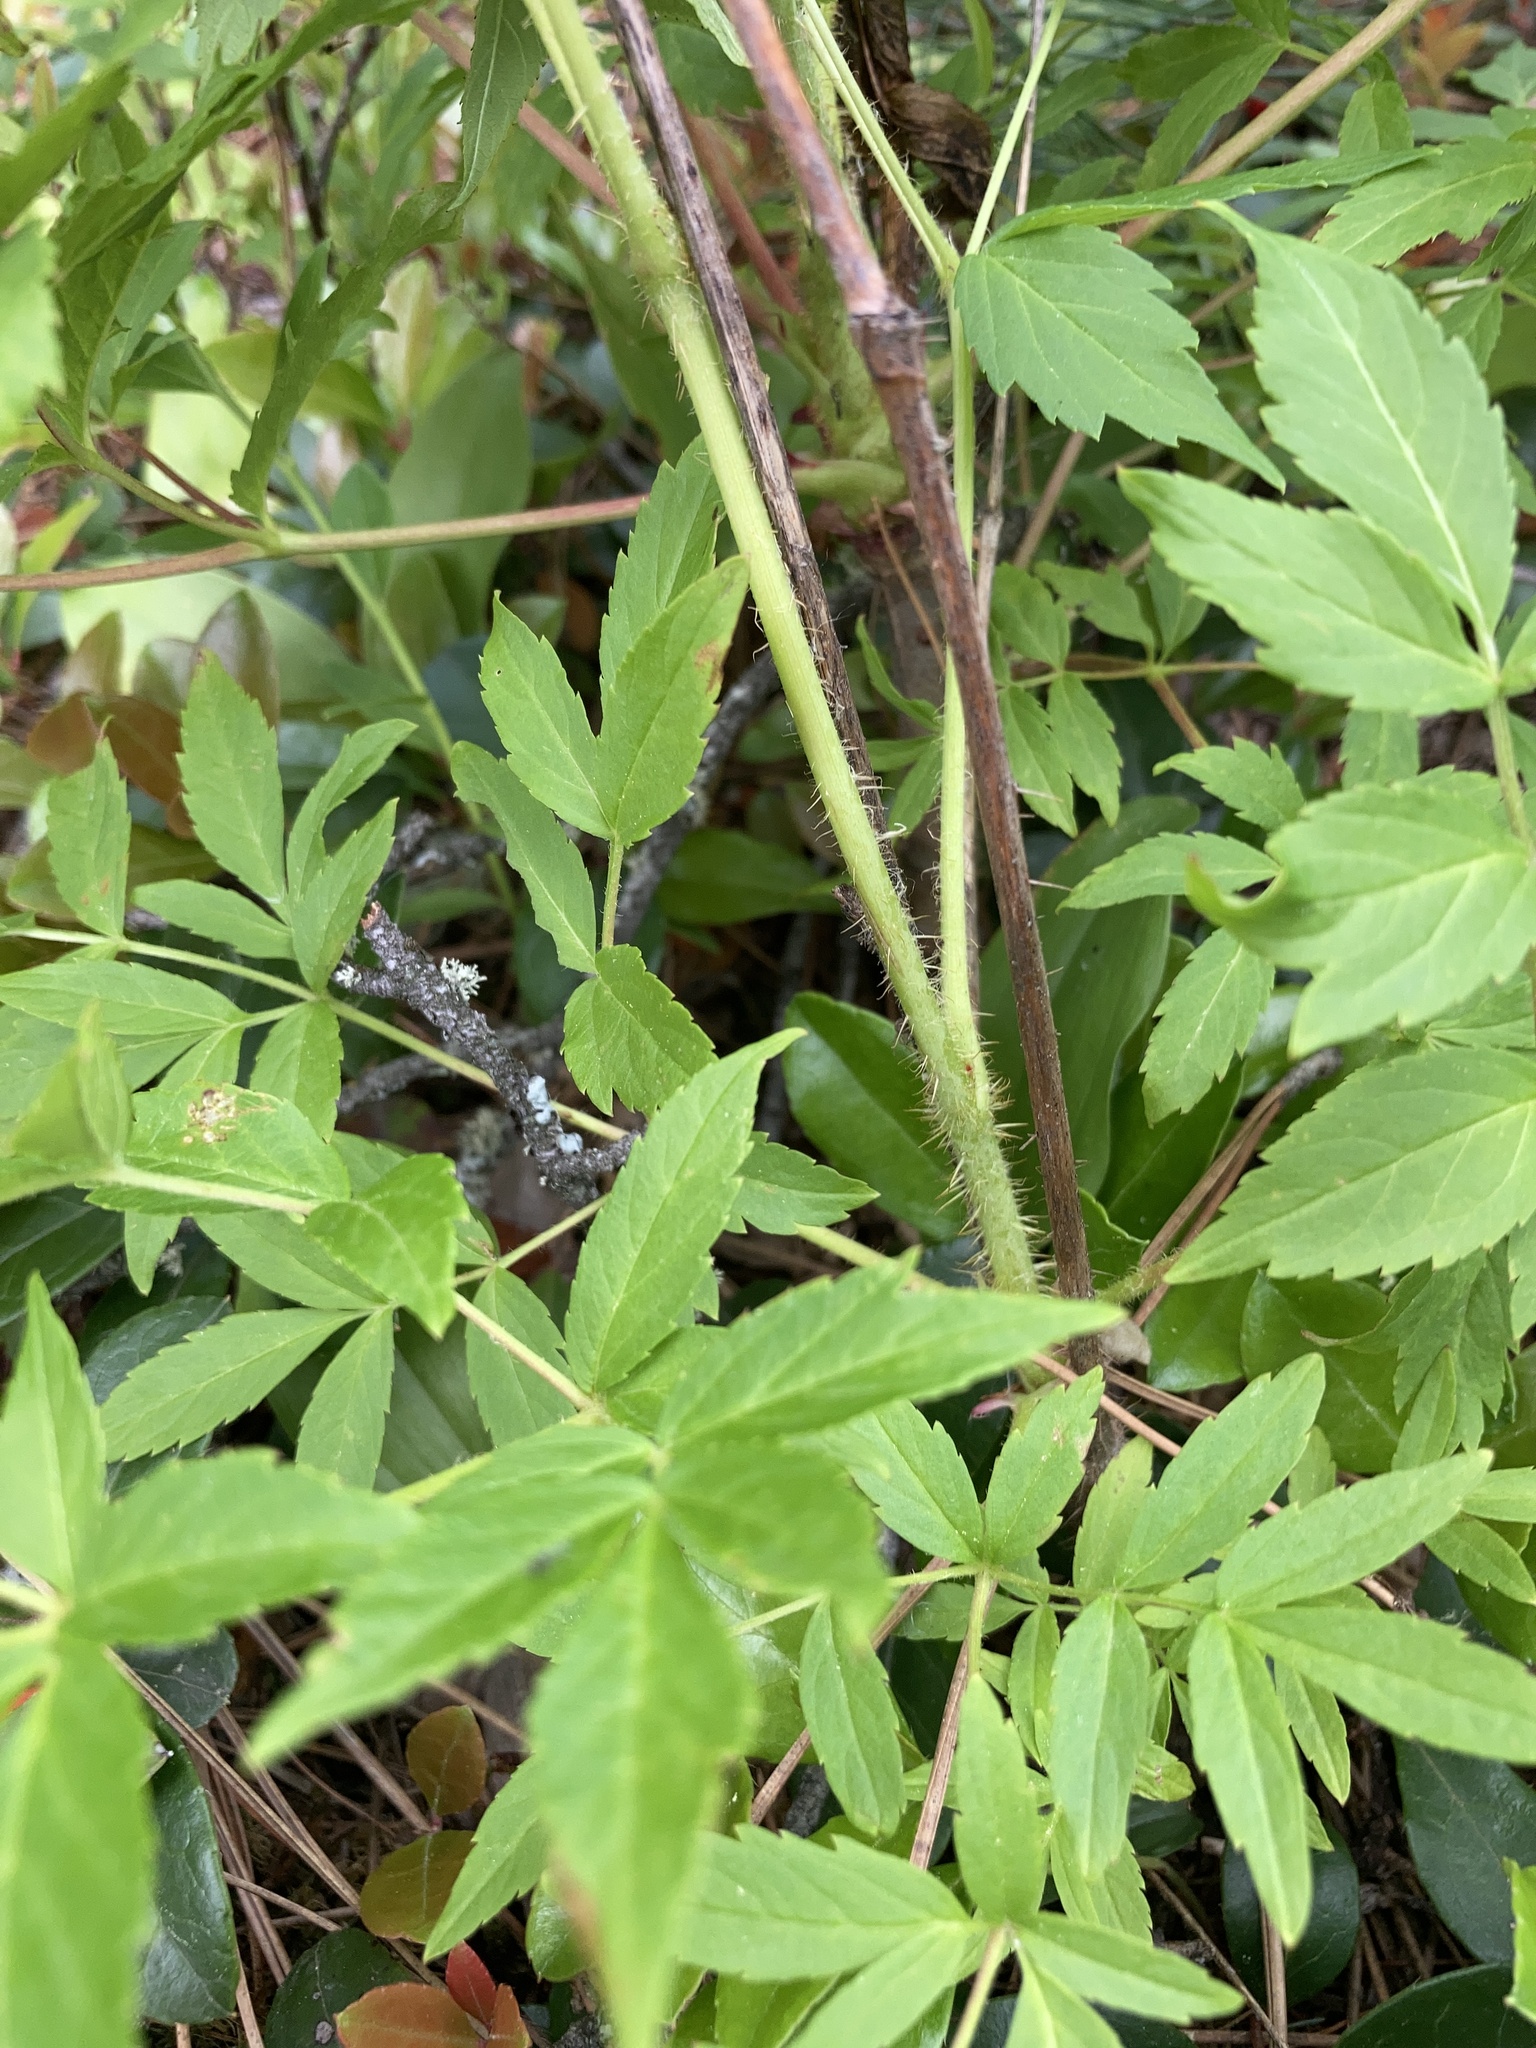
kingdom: Plantae
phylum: Tracheophyta
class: Magnoliopsida
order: Apiales
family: Araliaceae
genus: Aralia
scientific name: Aralia hispida
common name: Bristly sarsaparilla
